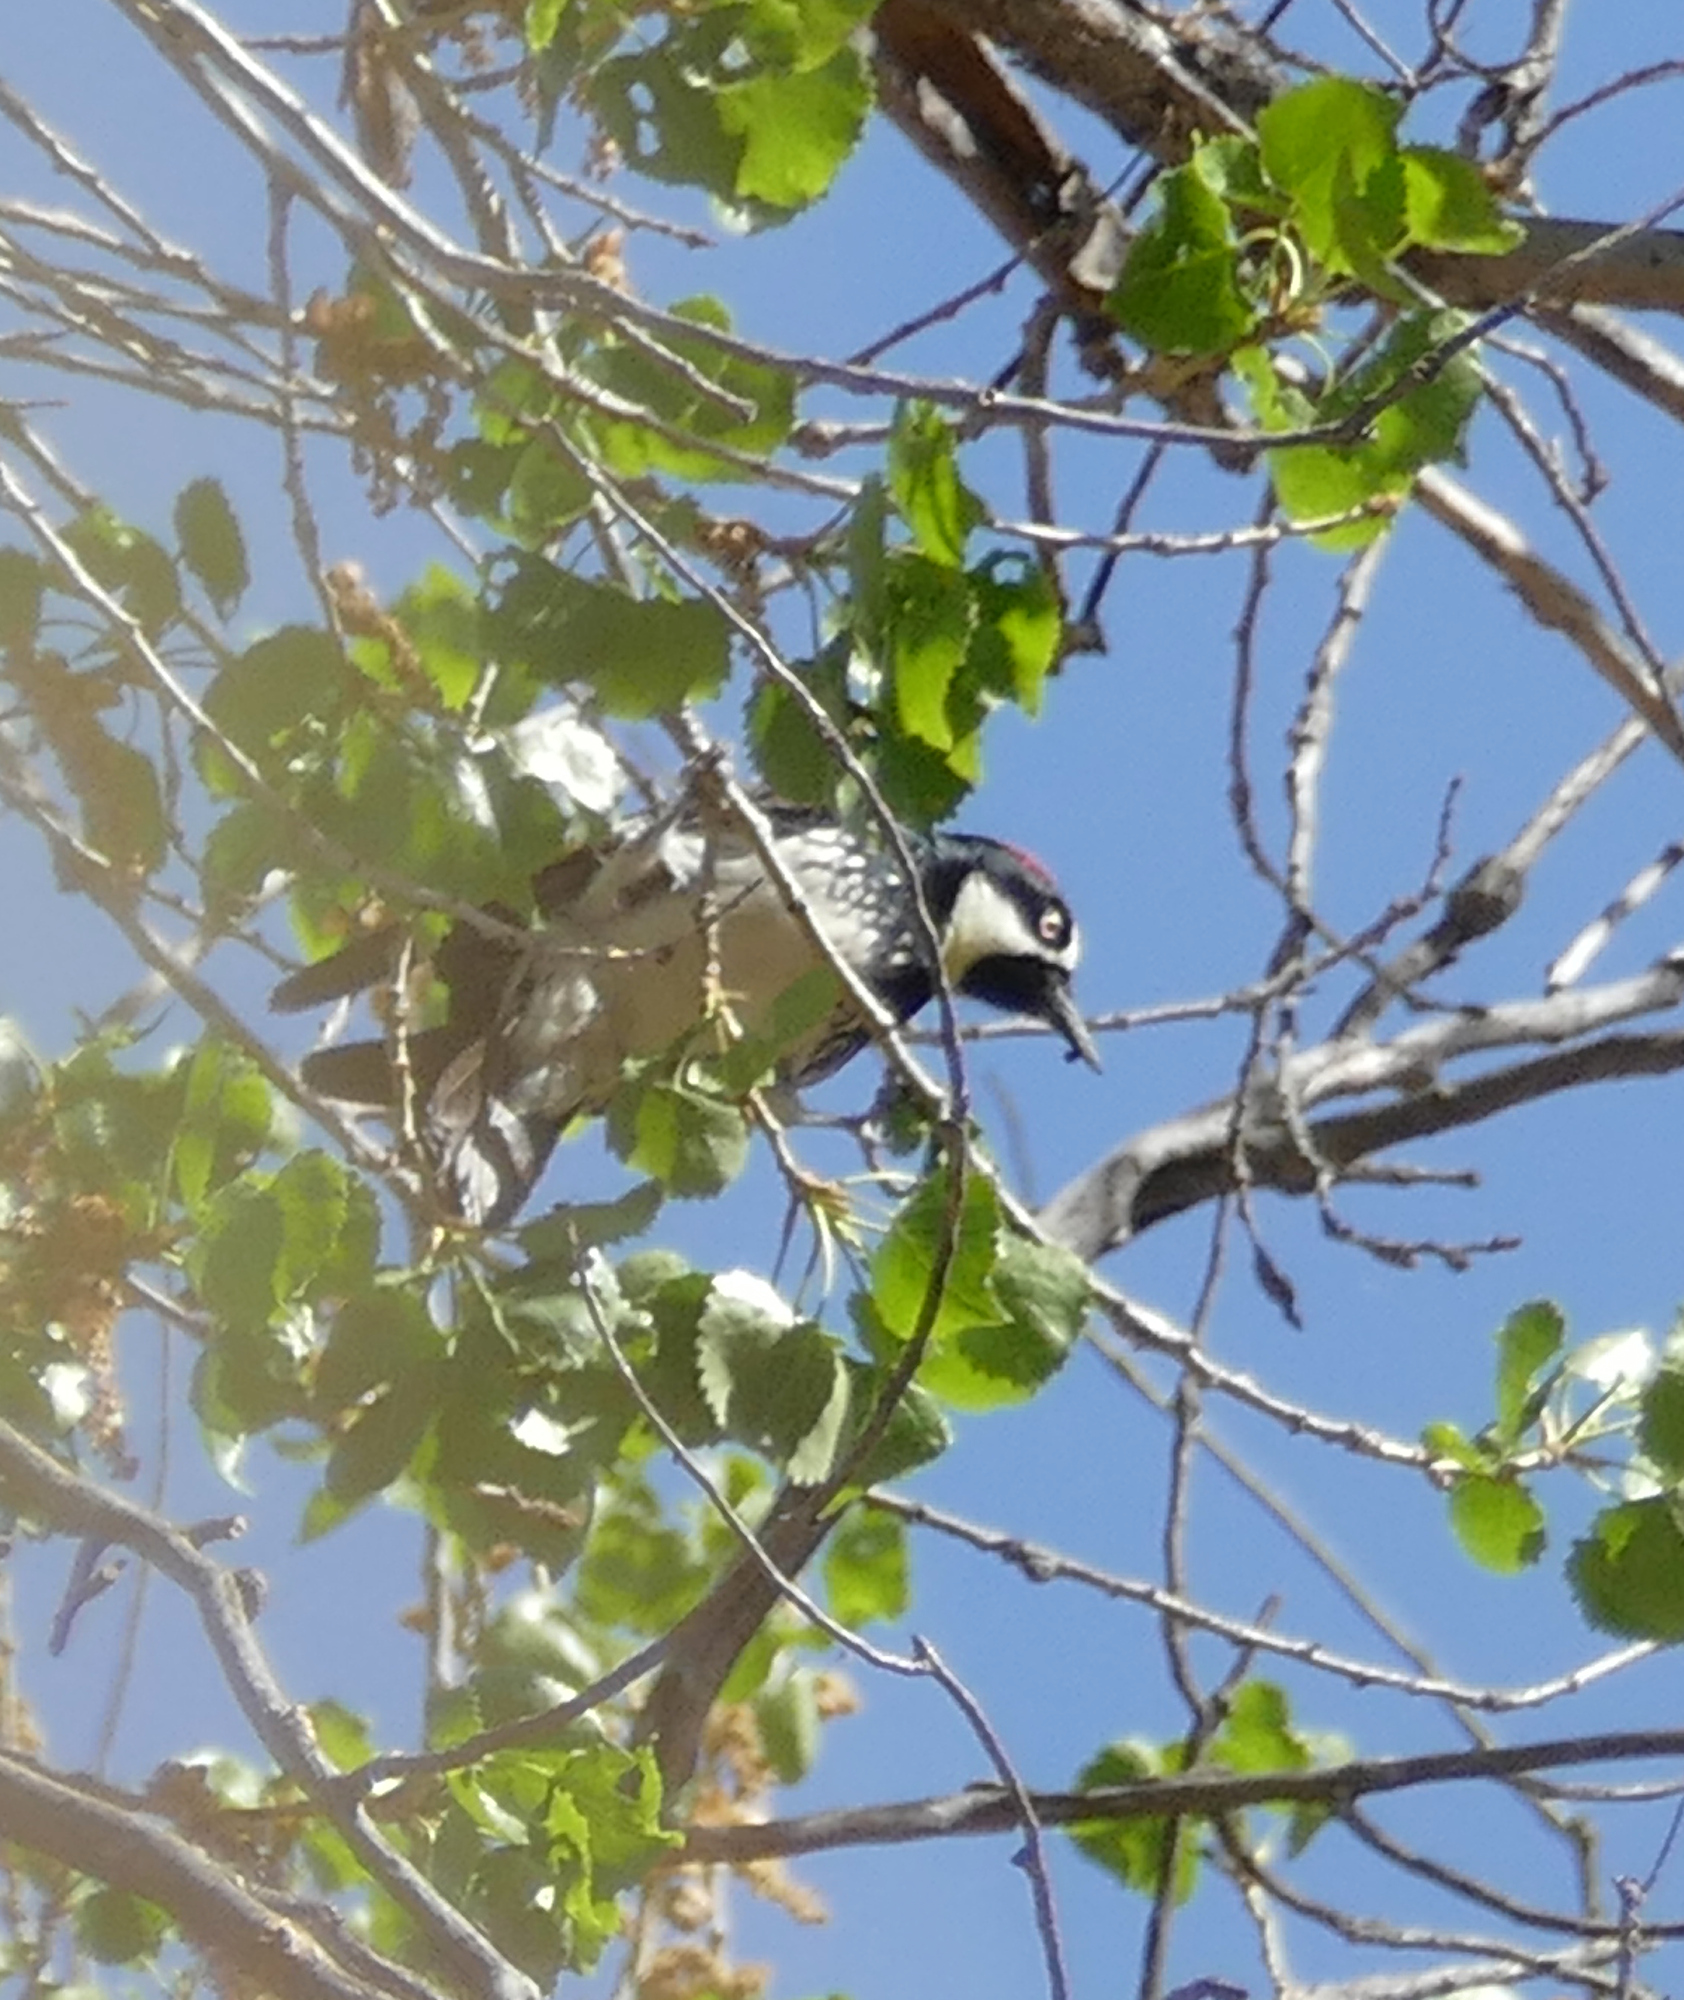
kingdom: Animalia
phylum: Chordata
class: Aves
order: Piciformes
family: Picidae
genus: Melanerpes
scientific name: Melanerpes formicivorus
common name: Acorn woodpecker
